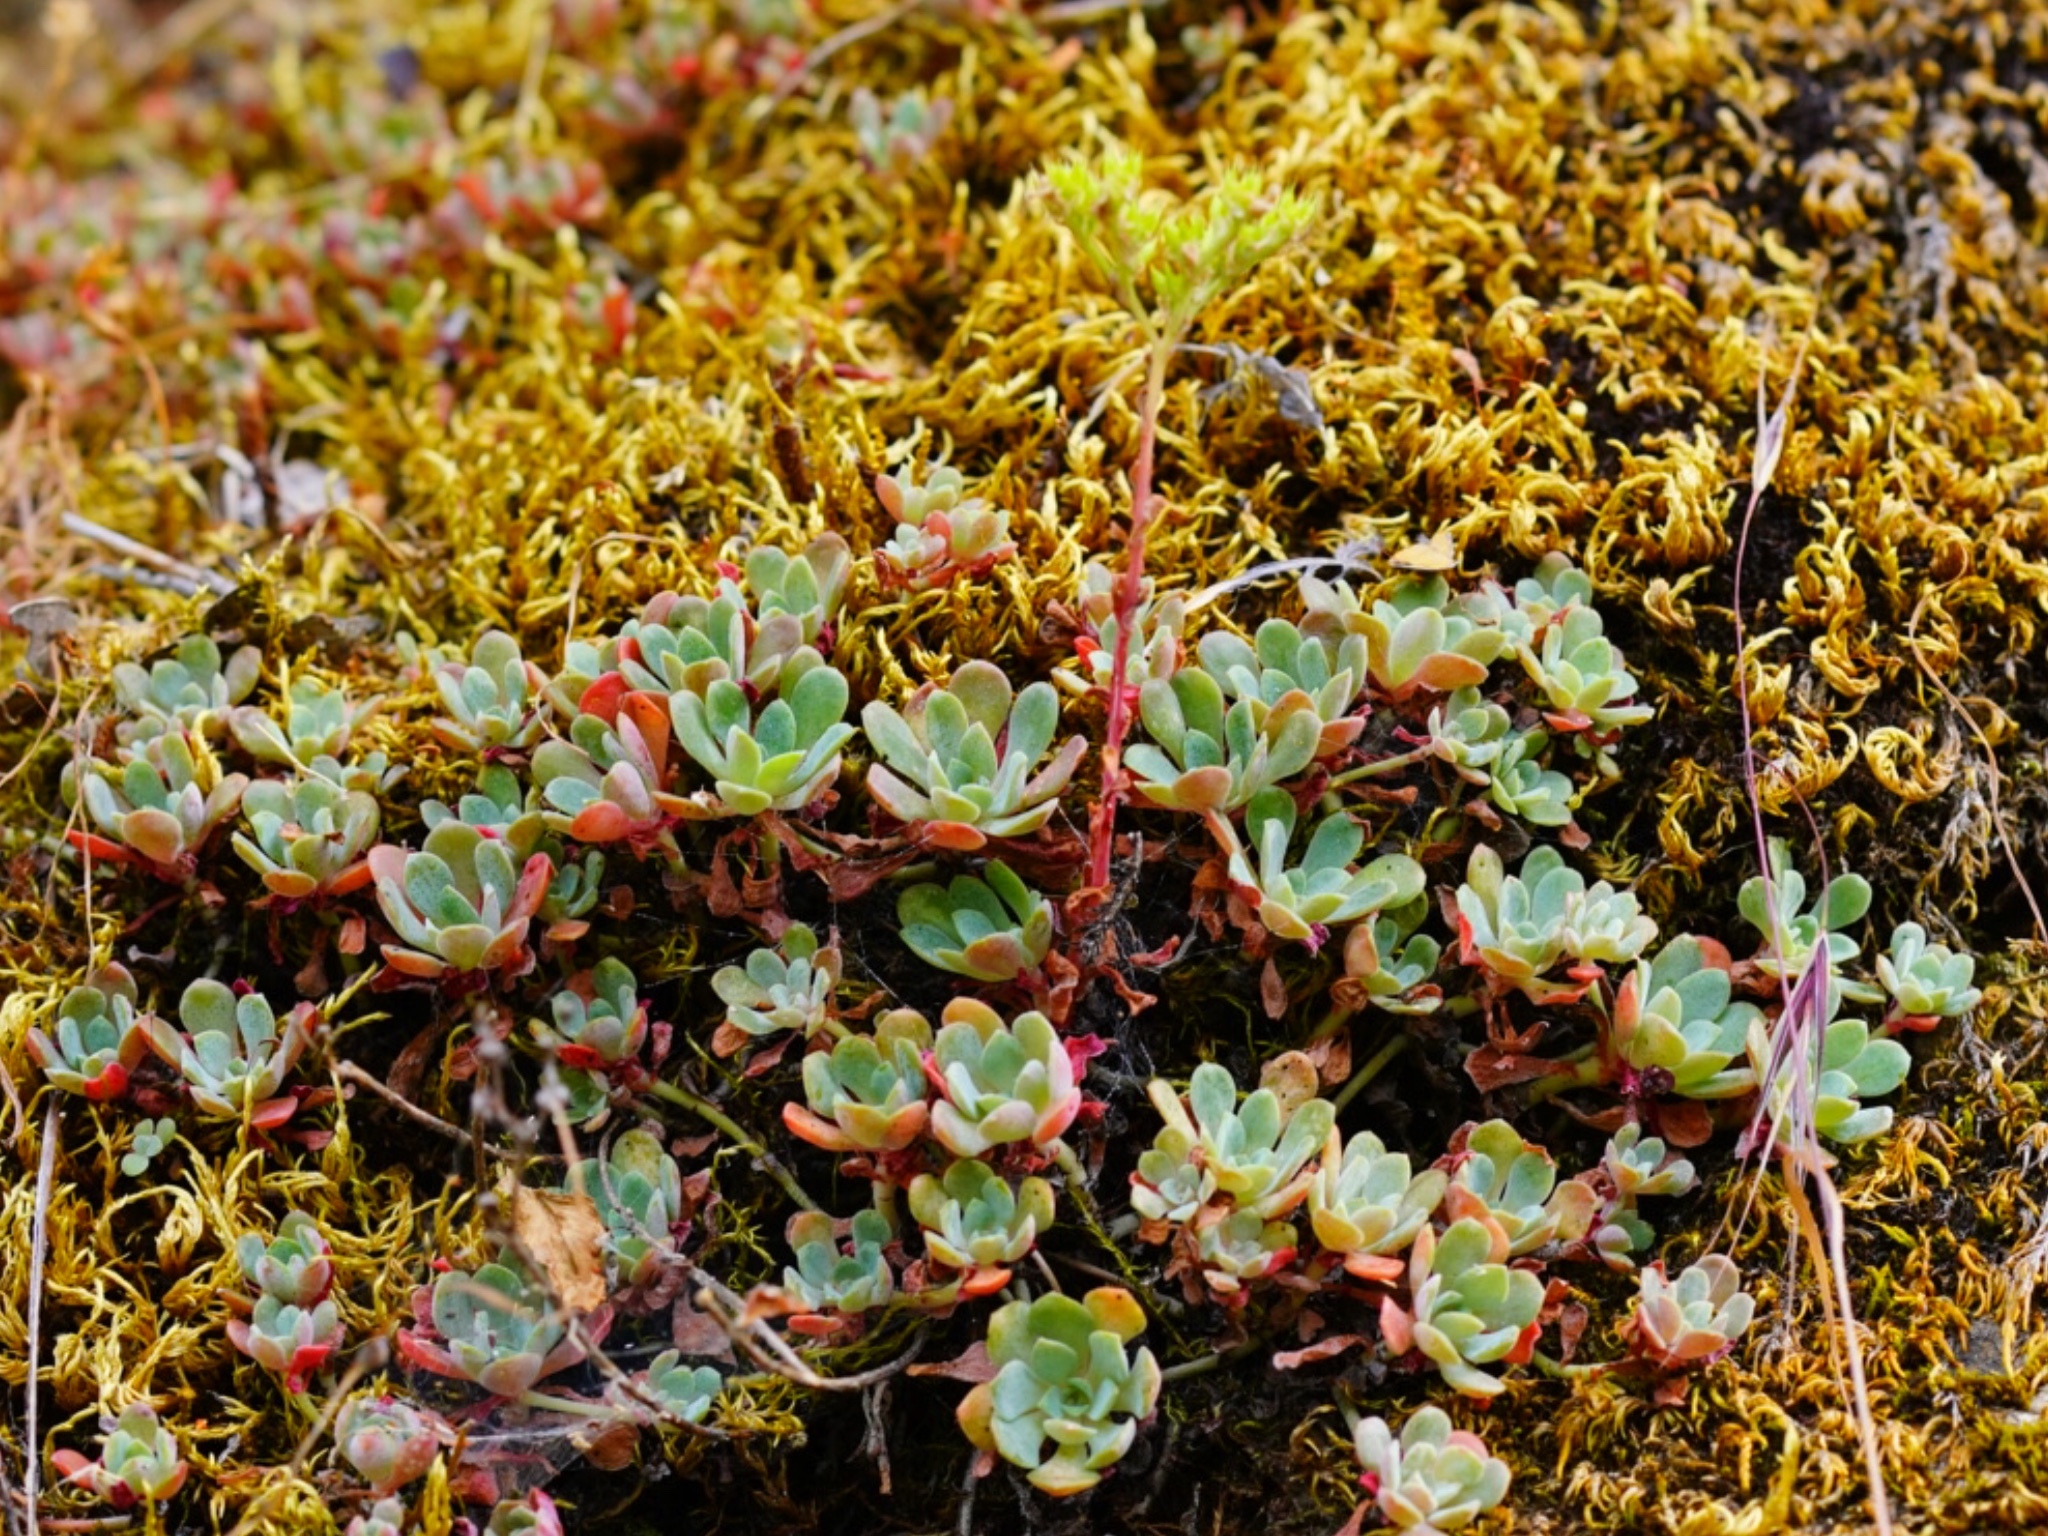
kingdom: Plantae
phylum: Tracheophyta
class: Magnoliopsida
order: Saxifragales
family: Crassulaceae
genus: Sedum
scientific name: Sedum spathulifolium
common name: Colorado stonecrop
